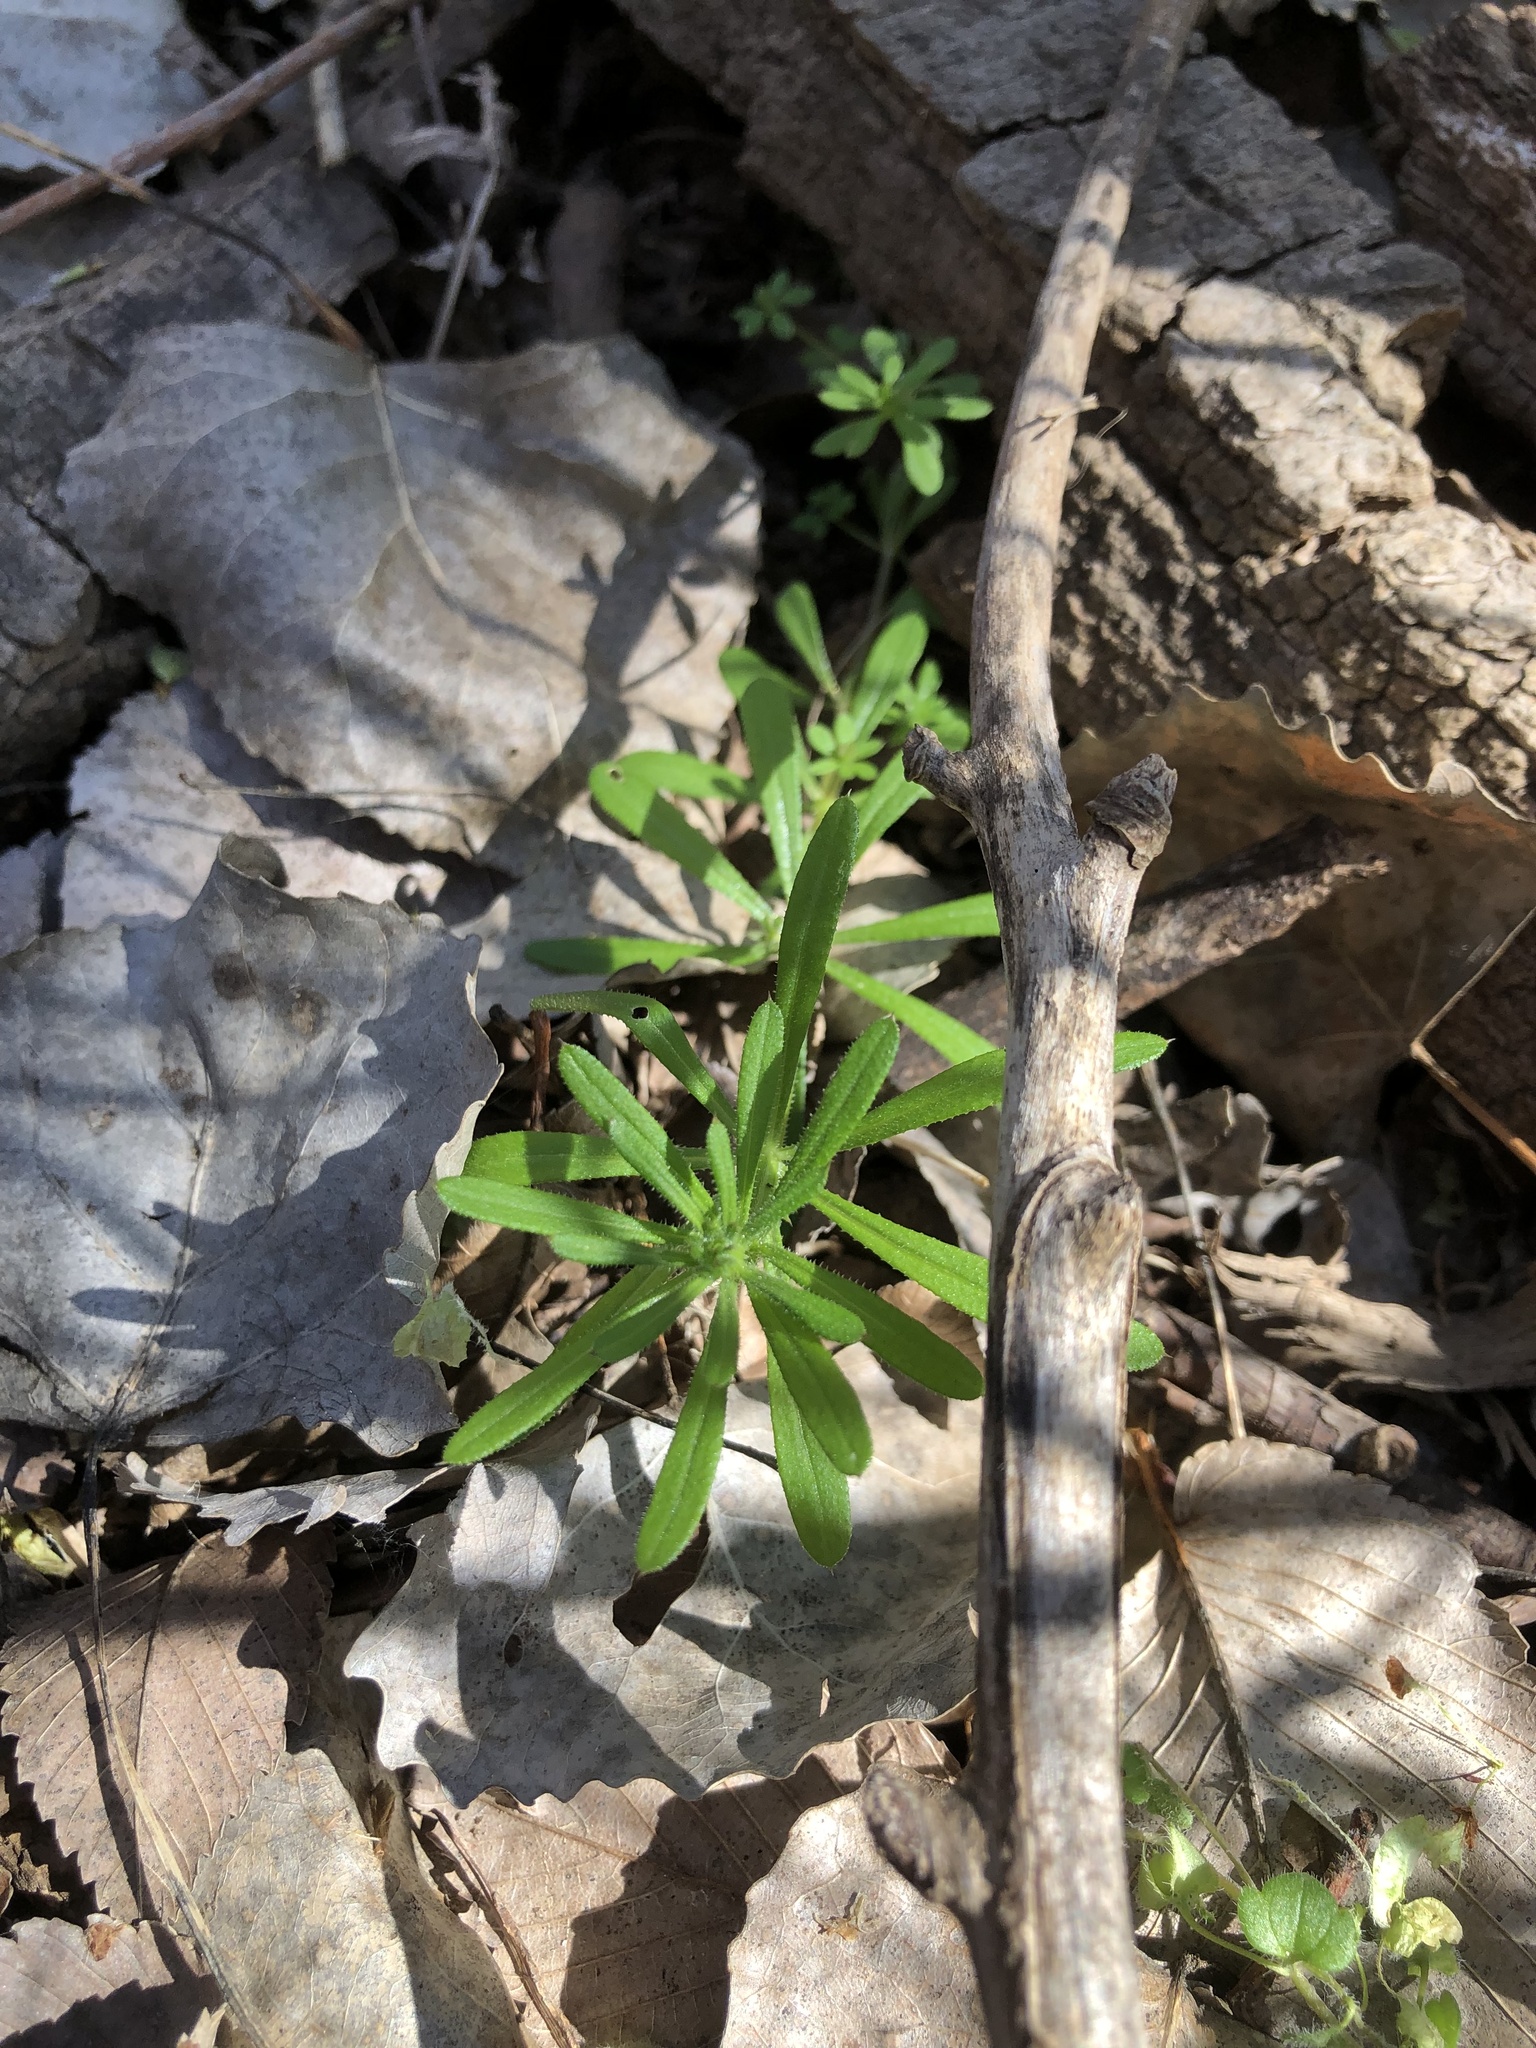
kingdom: Plantae
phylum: Tracheophyta
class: Magnoliopsida
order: Gentianales
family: Rubiaceae
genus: Galium
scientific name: Galium aparine
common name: Cleavers
